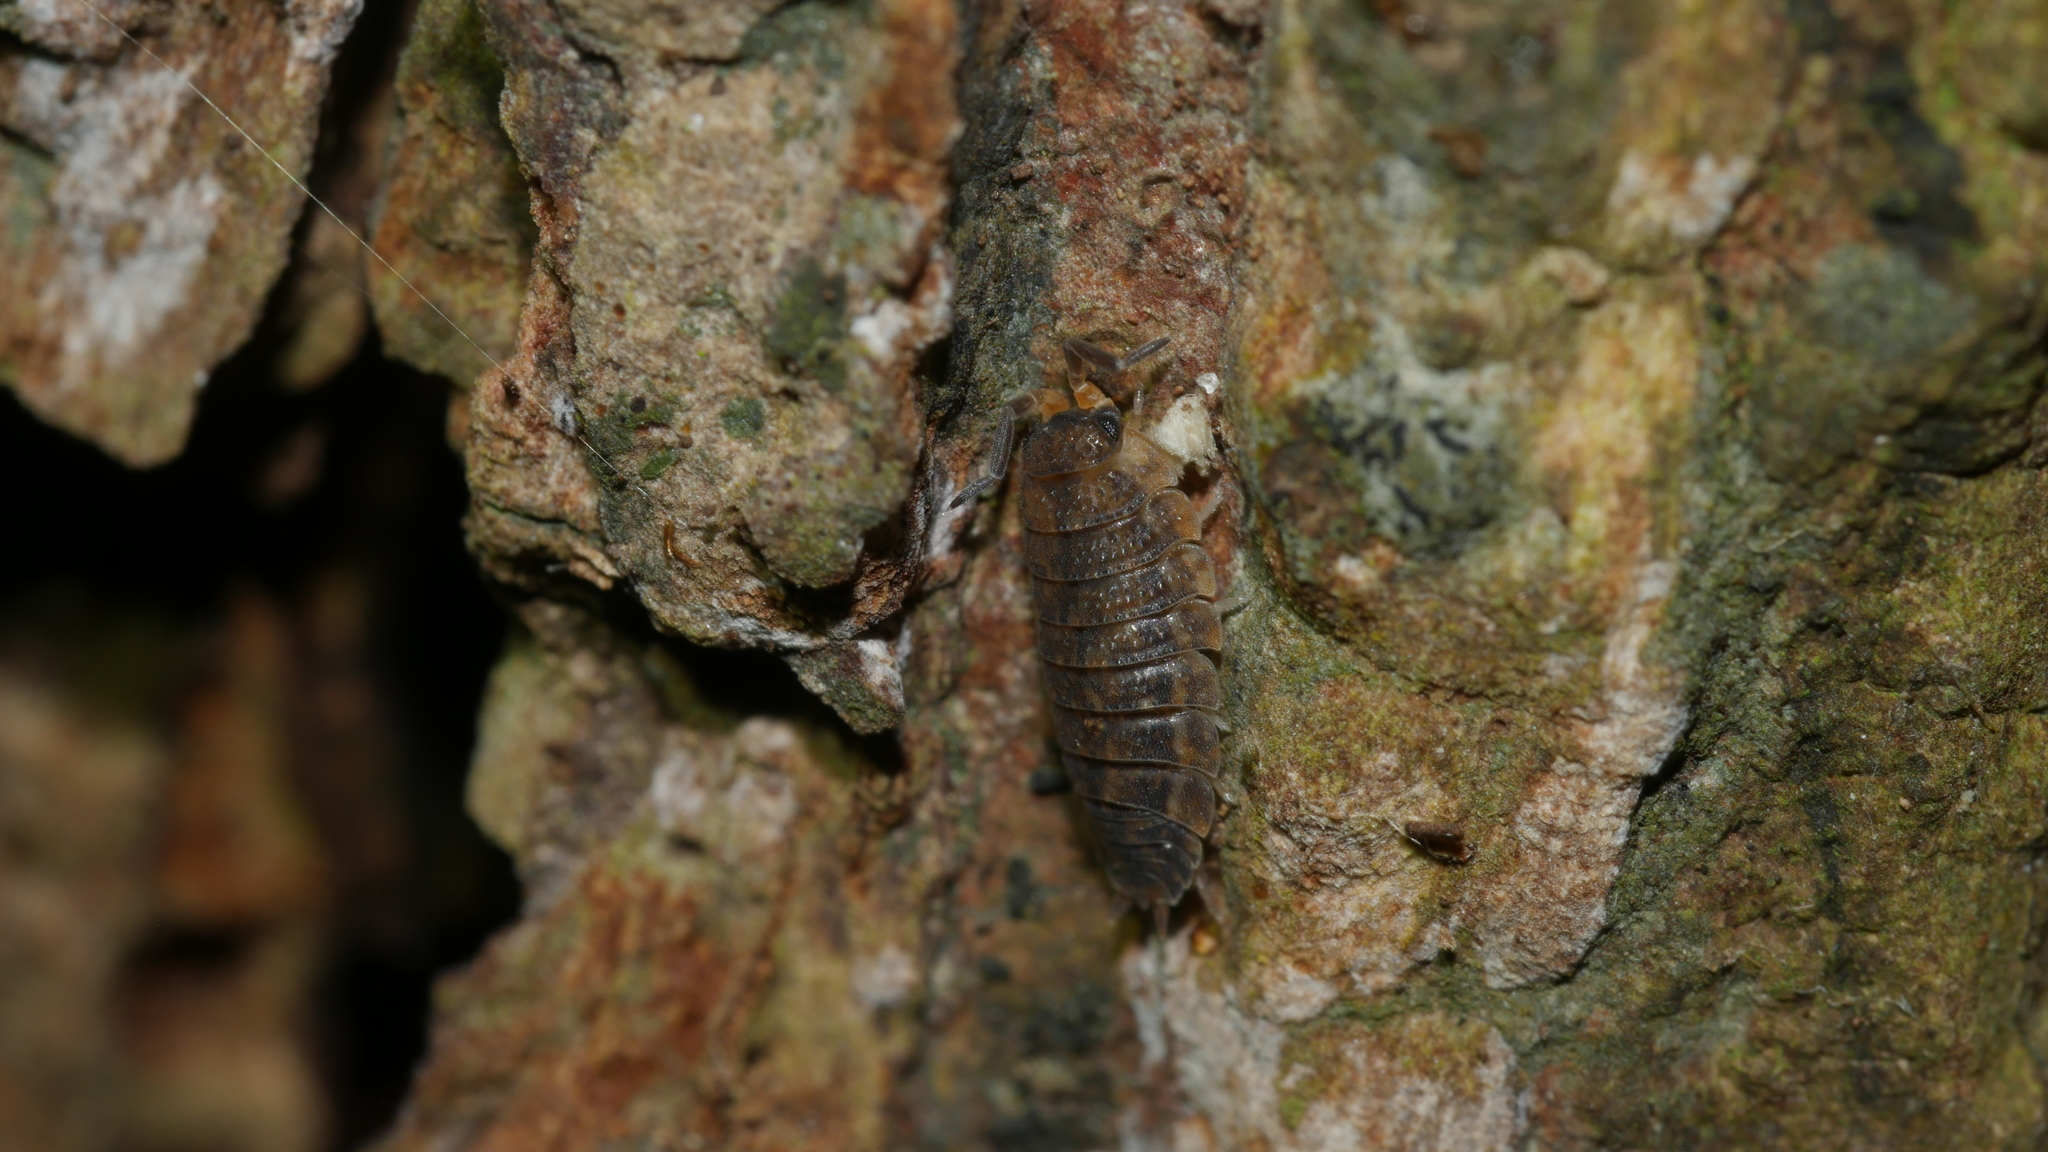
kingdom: Animalia
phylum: Arthropoda
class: Malacostraca
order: Isopoda
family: Porcellionidae
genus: Porcellio
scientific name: Porcellio scaber
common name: Common rough woodlouse
